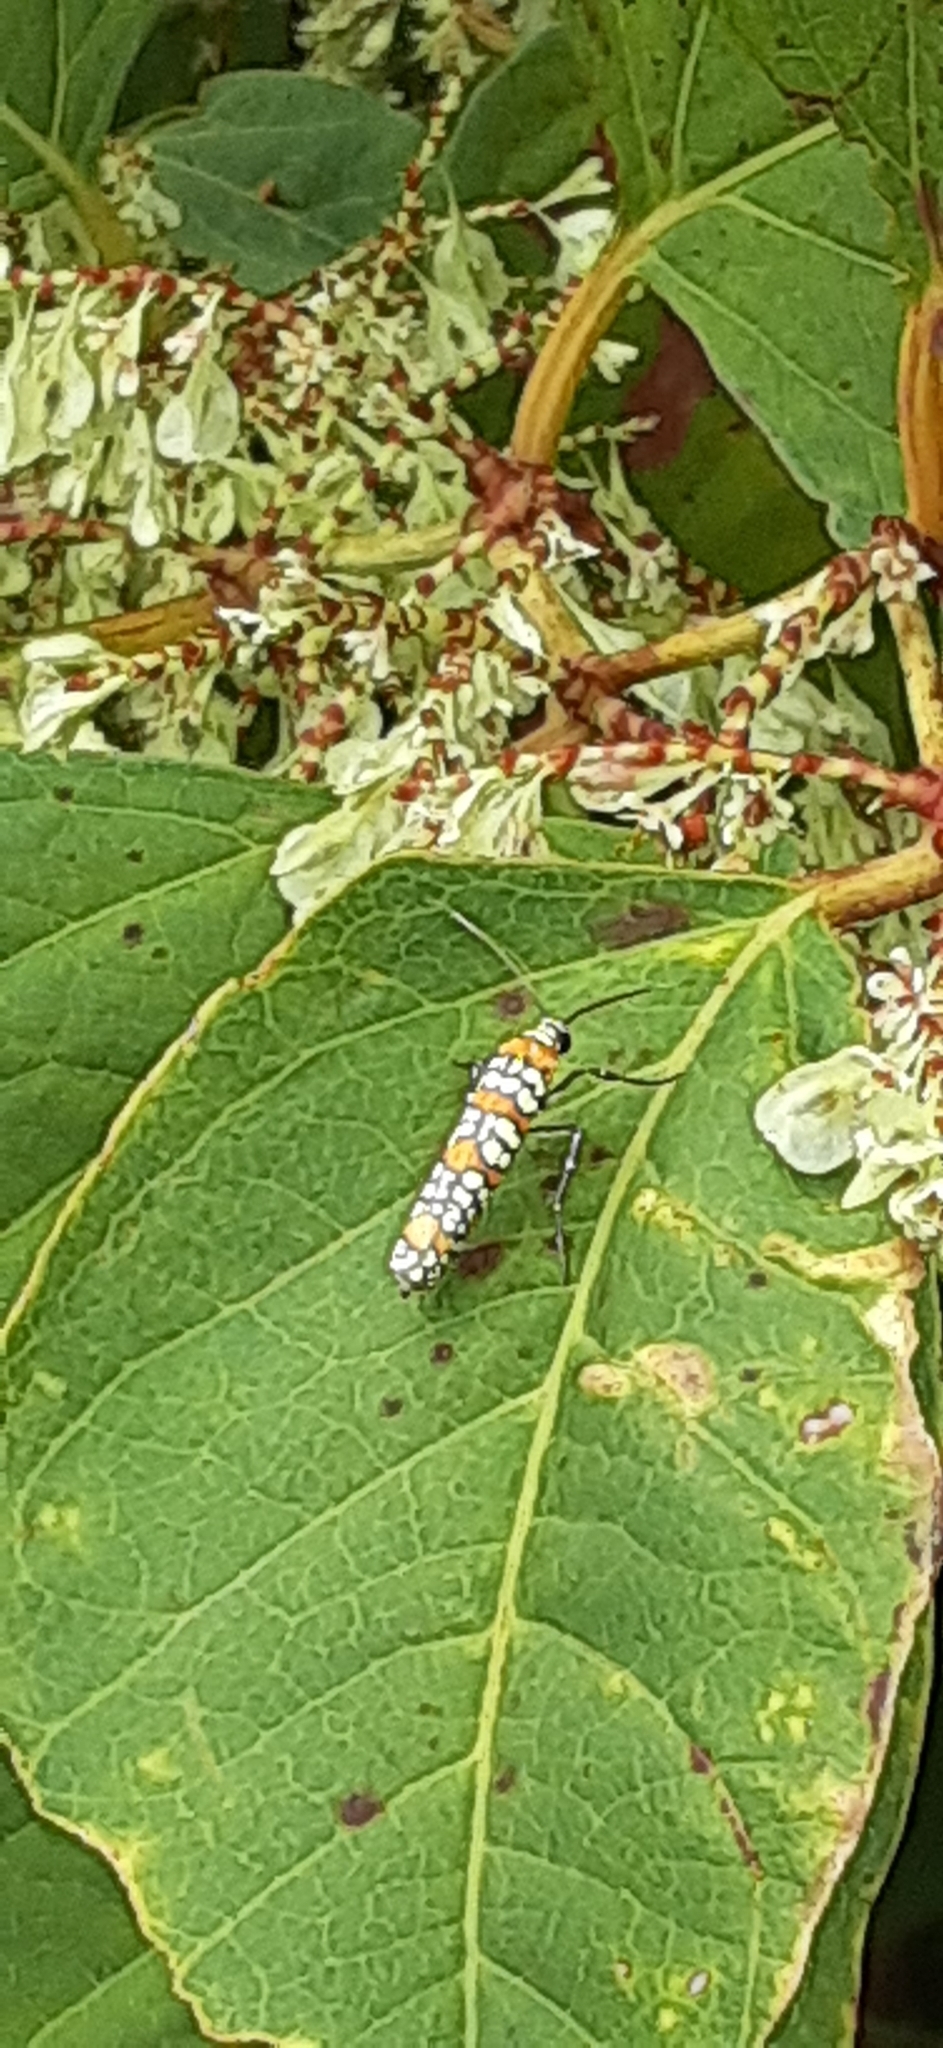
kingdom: Animalia
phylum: Arthropoda
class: Insecta
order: Lepidoptera
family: Attevidae
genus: Atteva
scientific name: Atteva punctella
